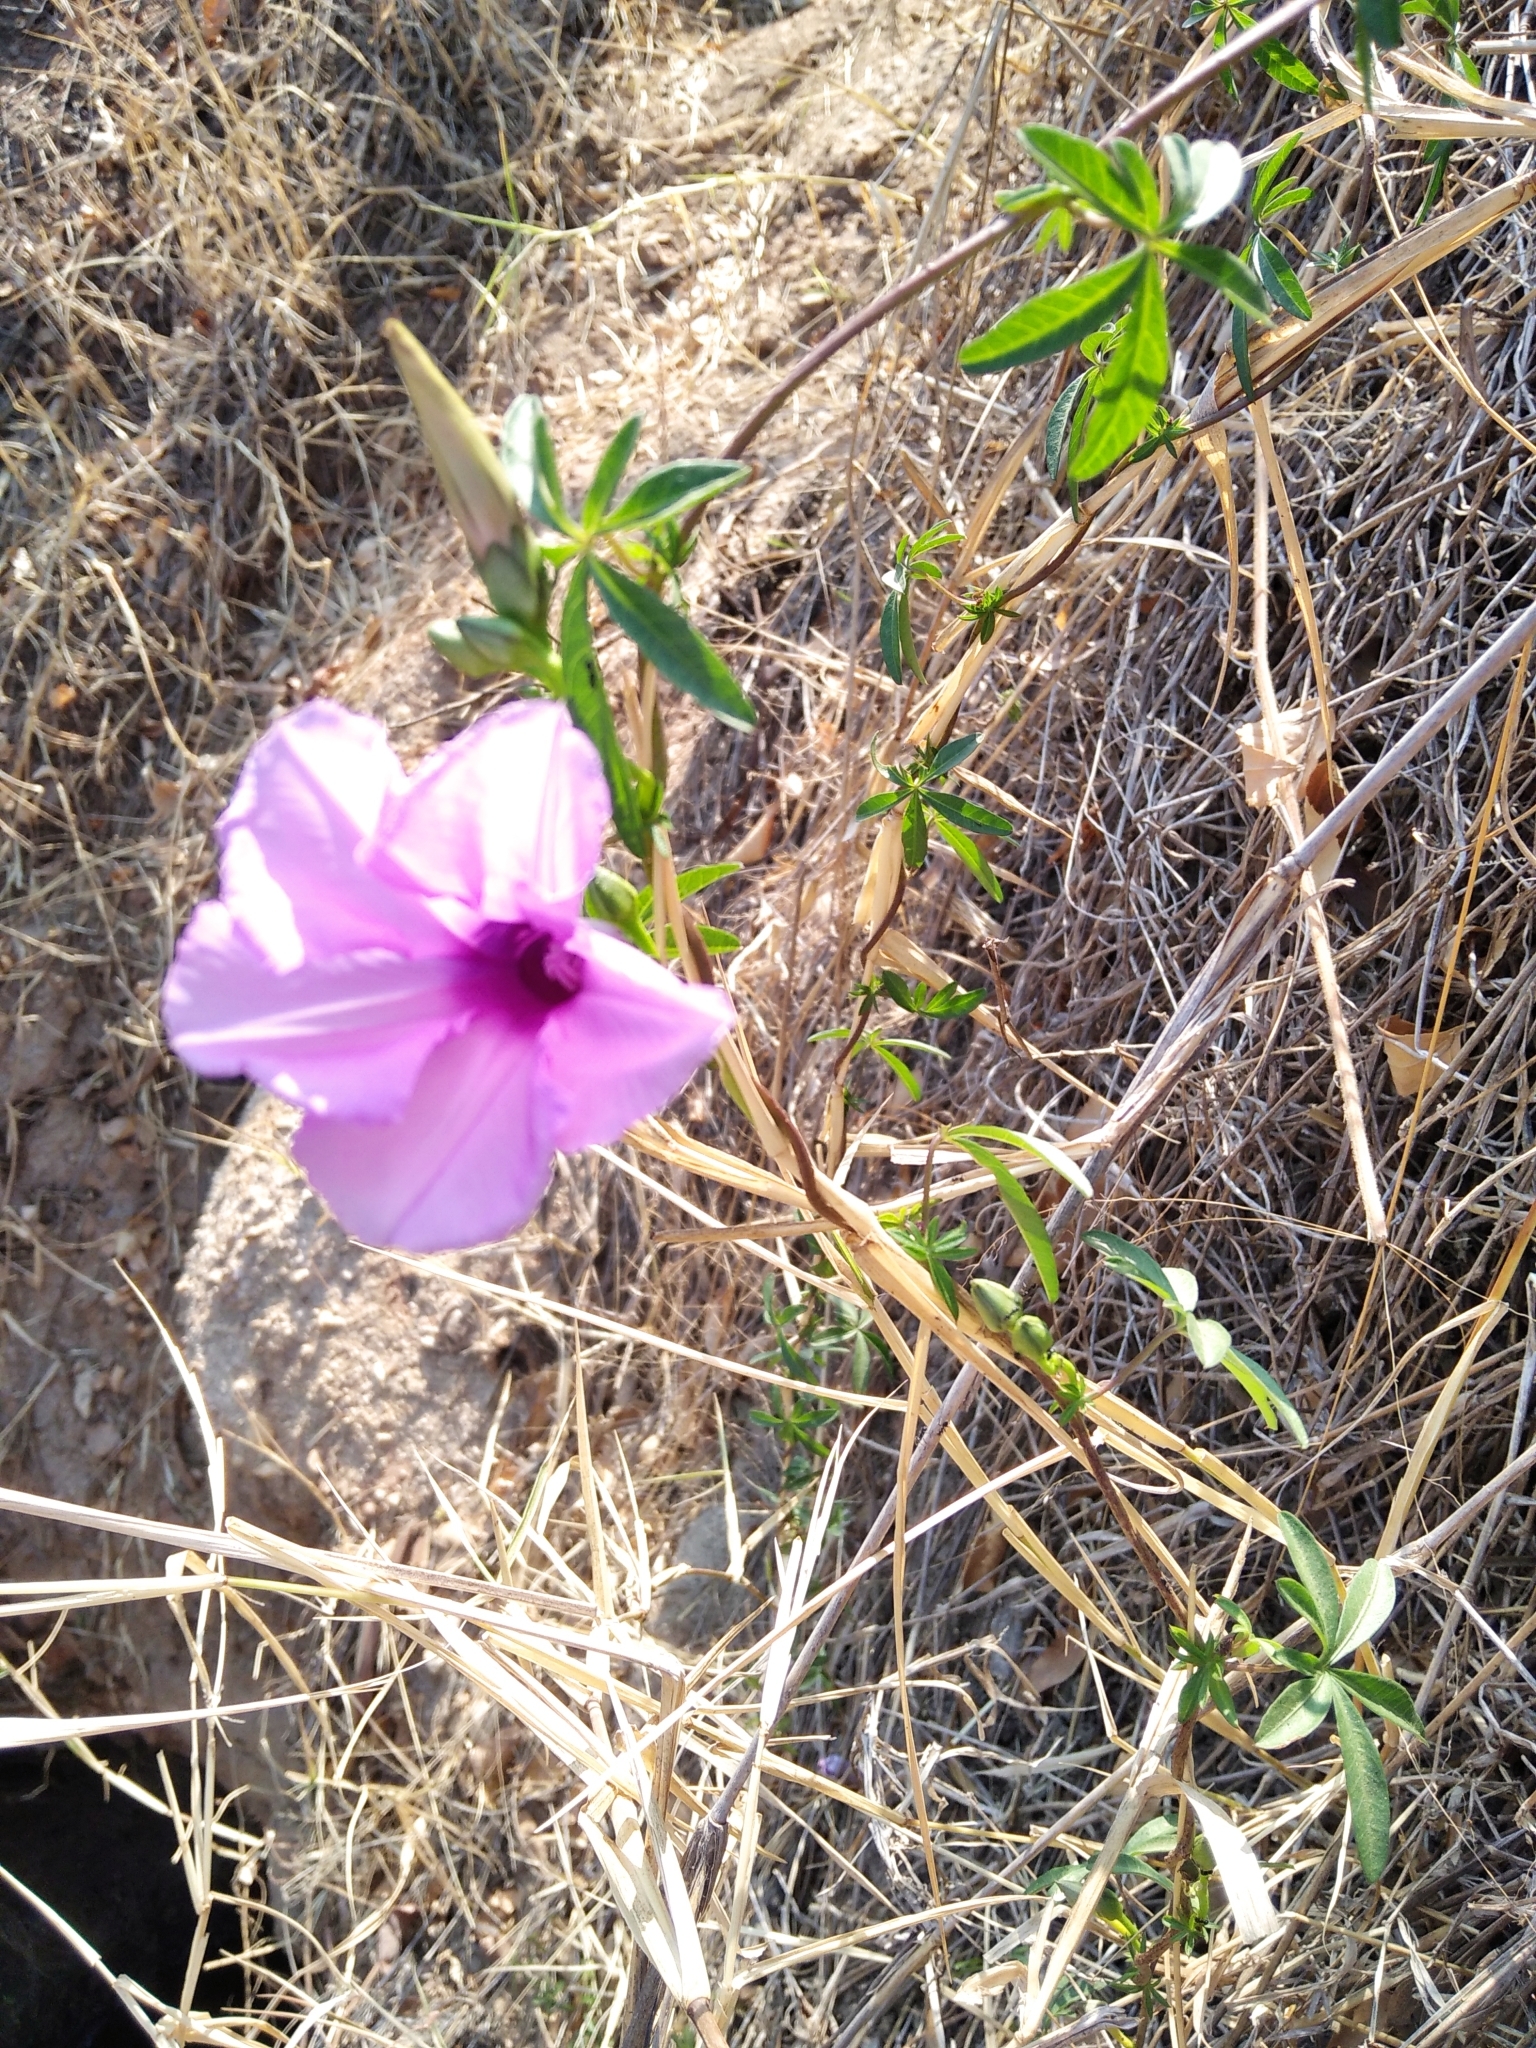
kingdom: Plantae
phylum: Tracheophyta
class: Magnoliopsida
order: Solanales
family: Convolvulaceae
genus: Ipomoea
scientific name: Ipomoea cairica
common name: Mile a minute vine
